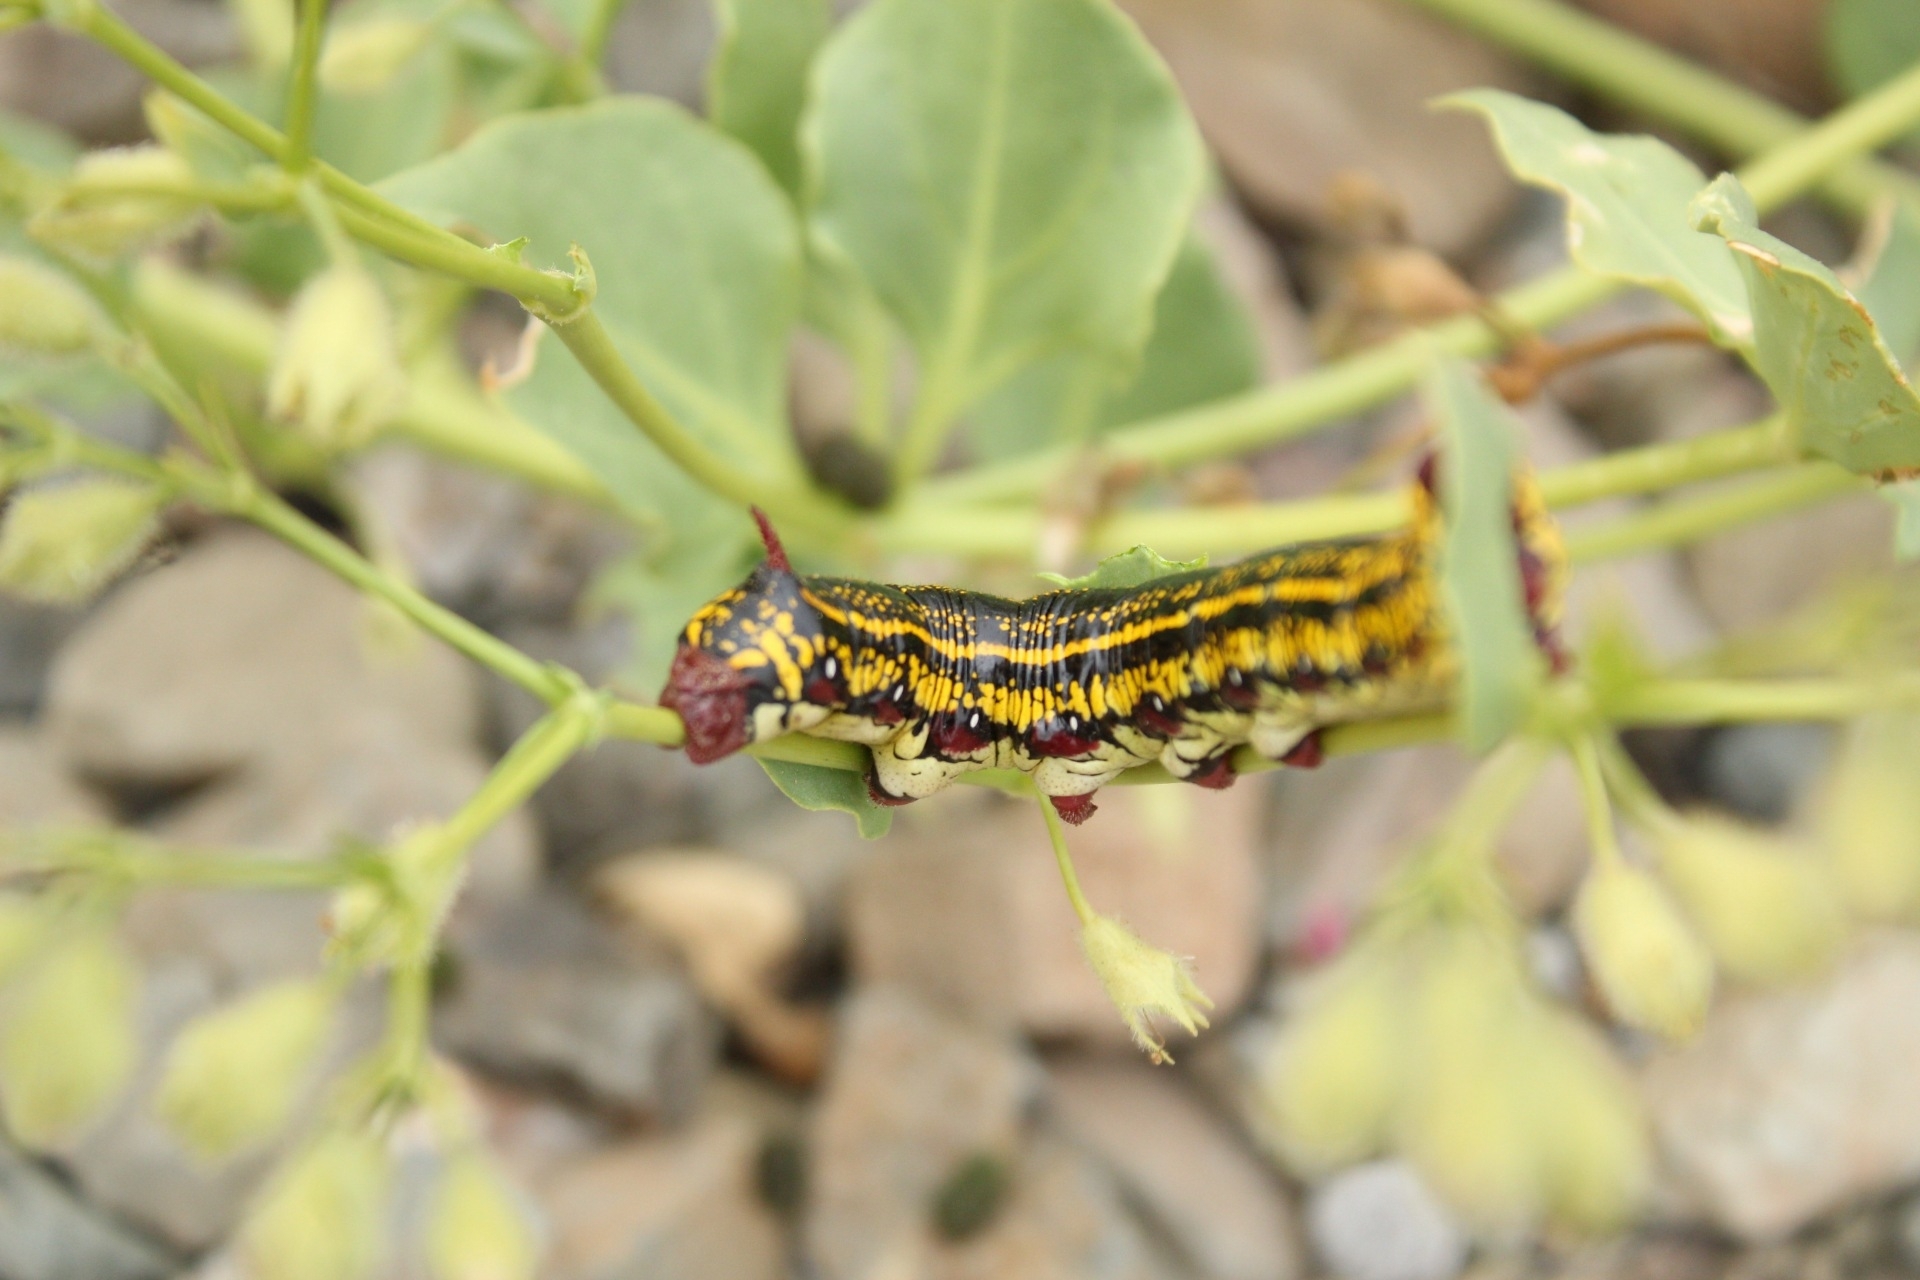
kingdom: Animalia
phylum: Arthropoda
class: Insecta
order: Lepidoptera
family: Sphingidae
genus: Hyles
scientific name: Hyles annei
